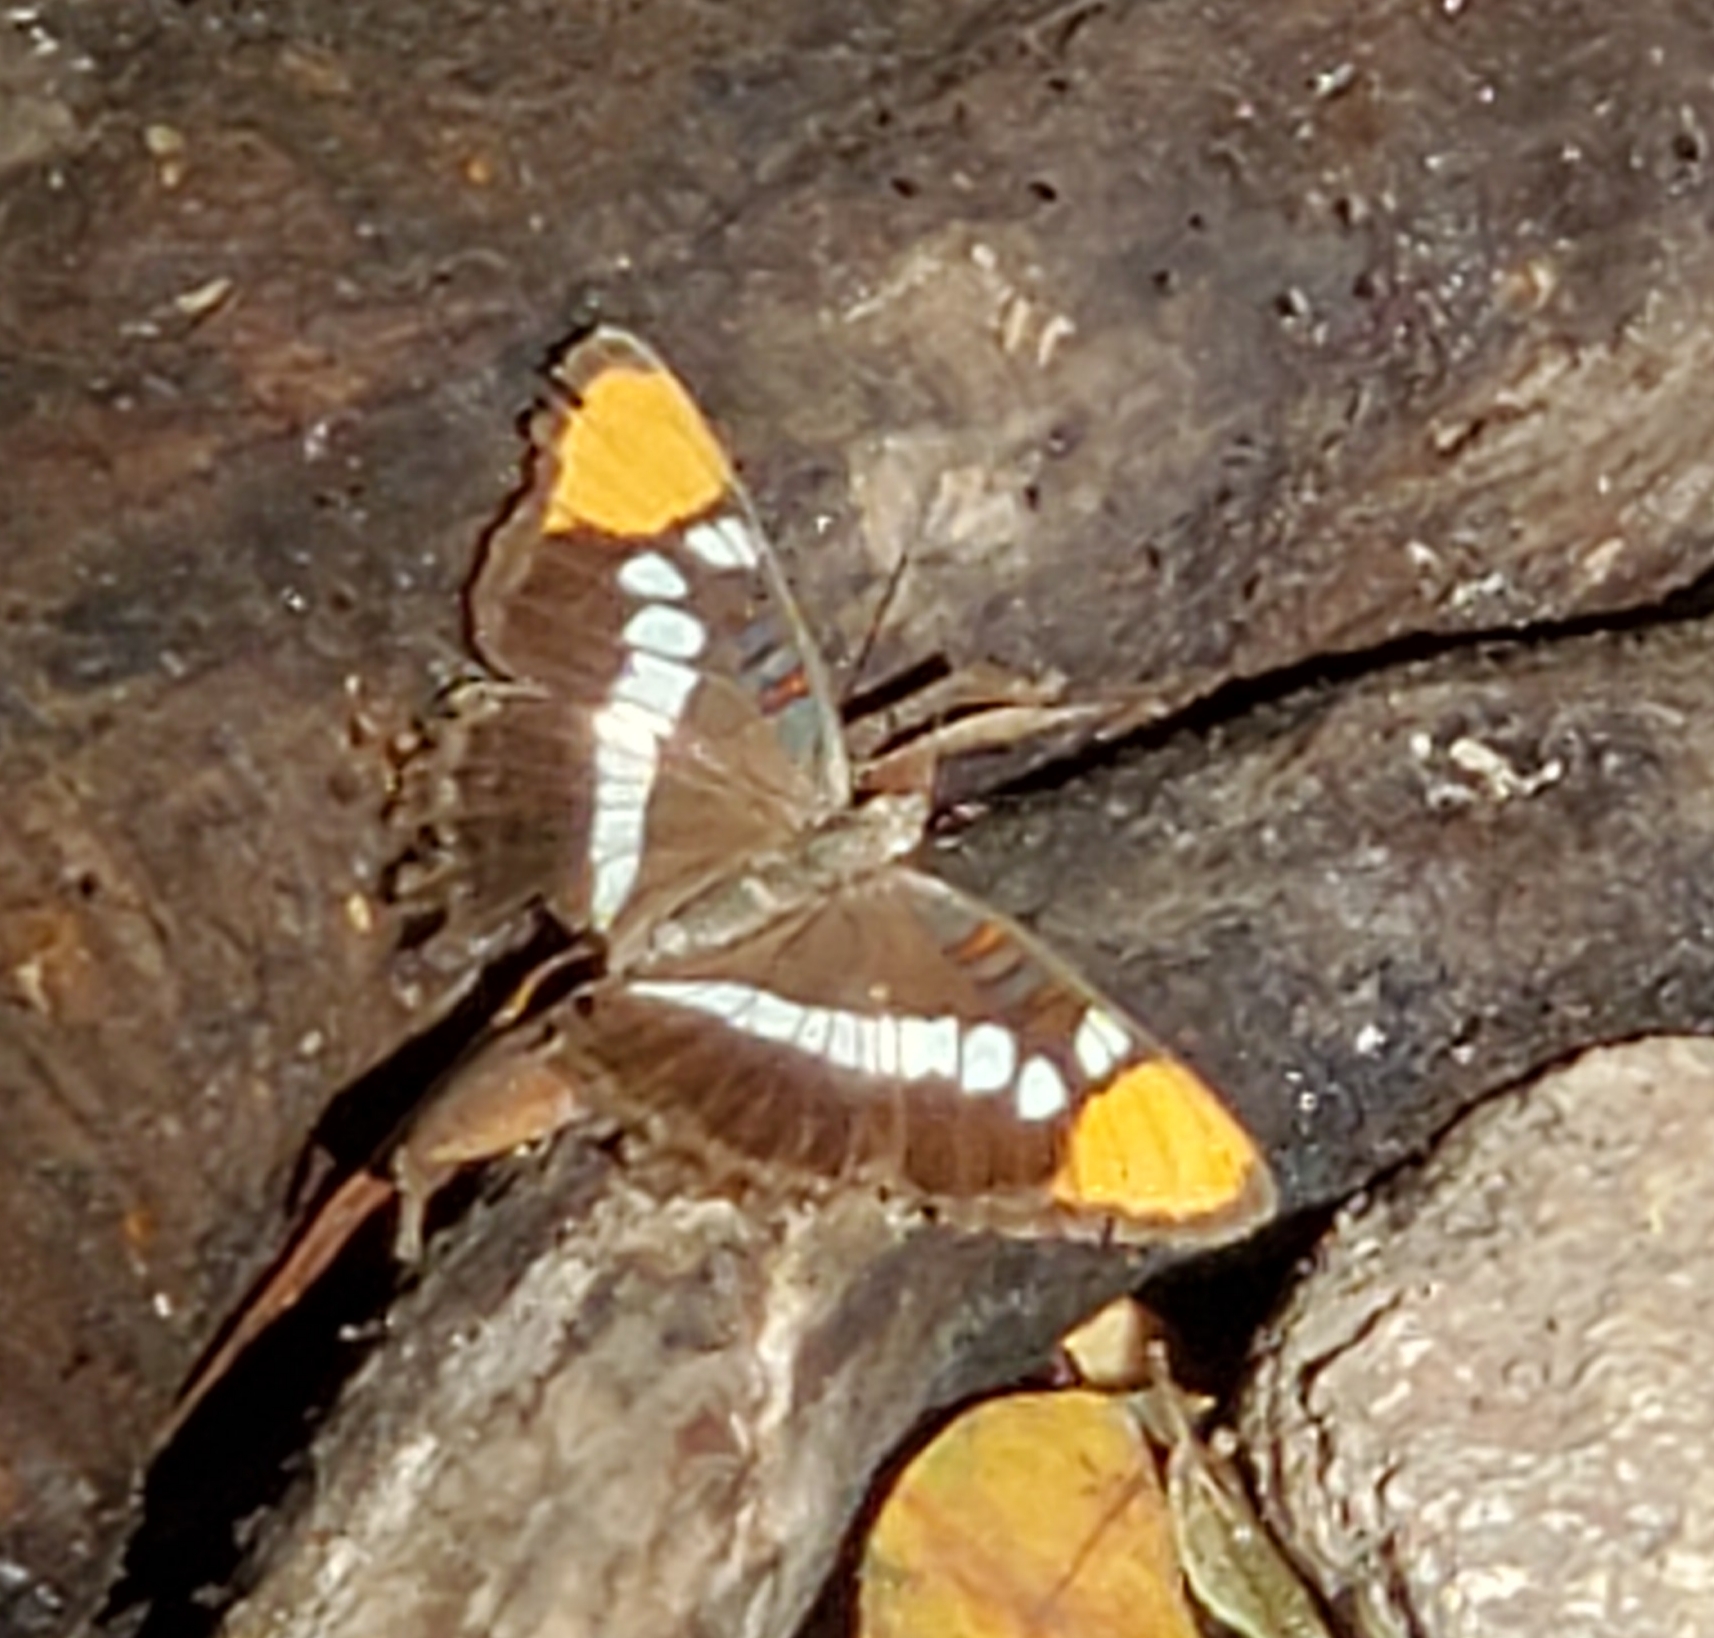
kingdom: Animalia
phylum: Arthropoda
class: Insecta
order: Lepidoptera
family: Nymphalidae
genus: Limenitis
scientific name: Limenitis bredowii
